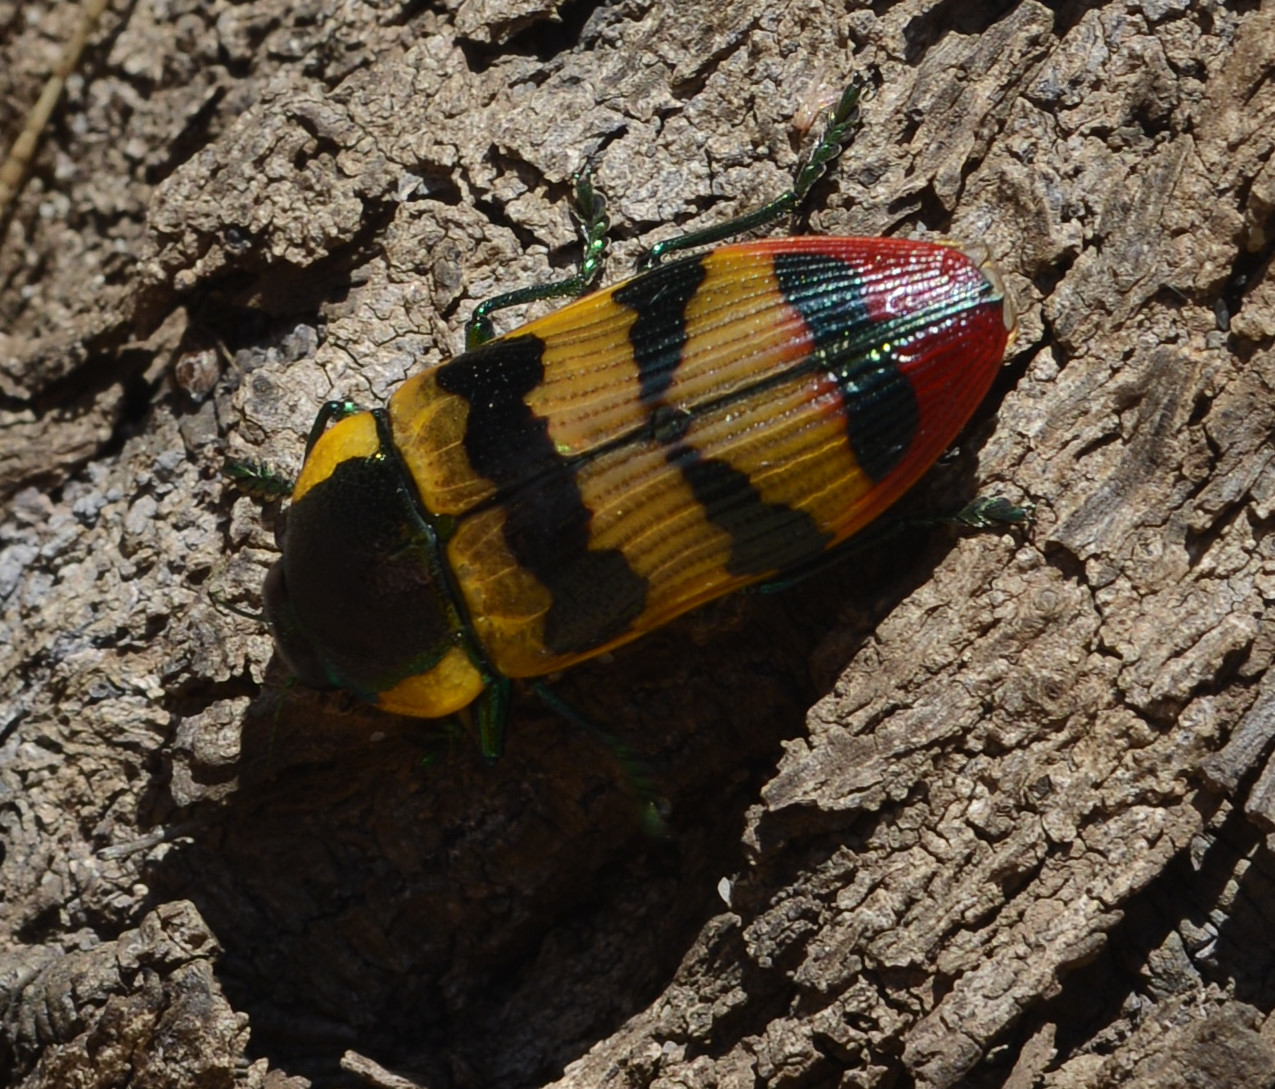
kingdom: Animalia
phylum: Arthropoda
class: Insecta
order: Coleoptera
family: Buprestidae
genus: Temognatha
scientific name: Temognatha variabilis
